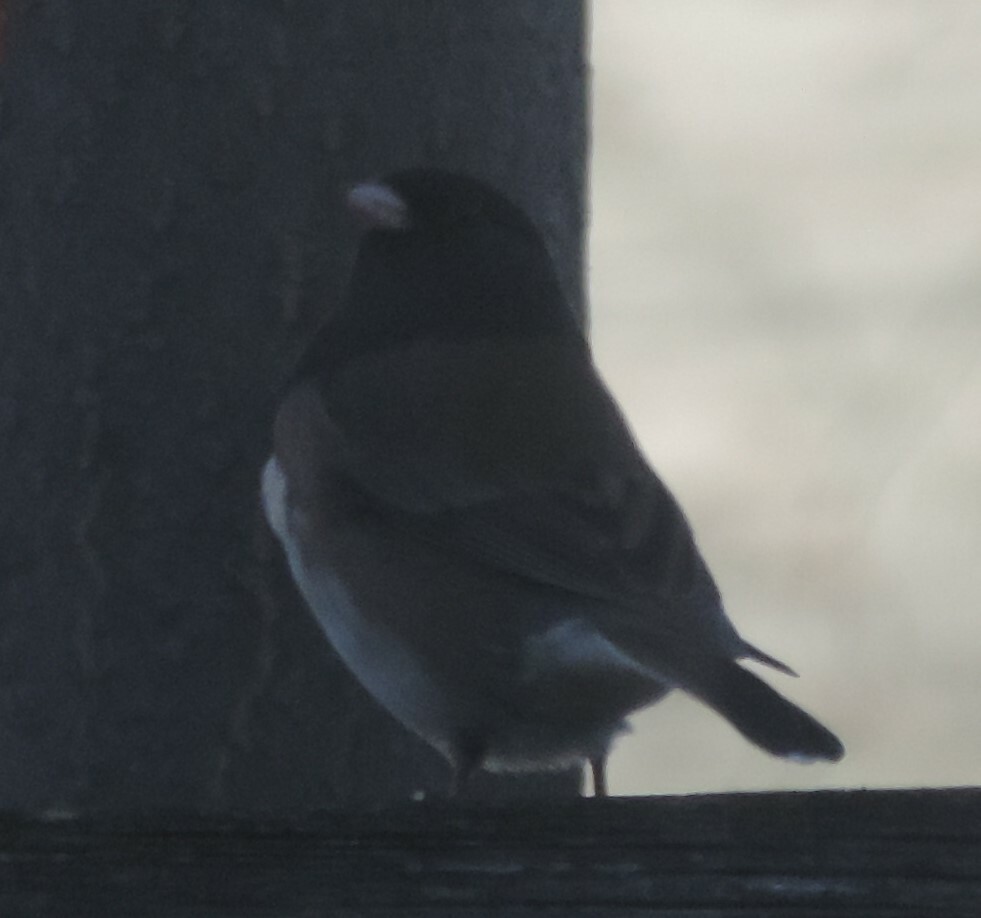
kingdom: Animalia
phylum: Chordata
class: Aves
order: Passeriformes
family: Passerellidae
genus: Junco
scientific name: Junco hyemalis
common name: Dark-eyed junco
